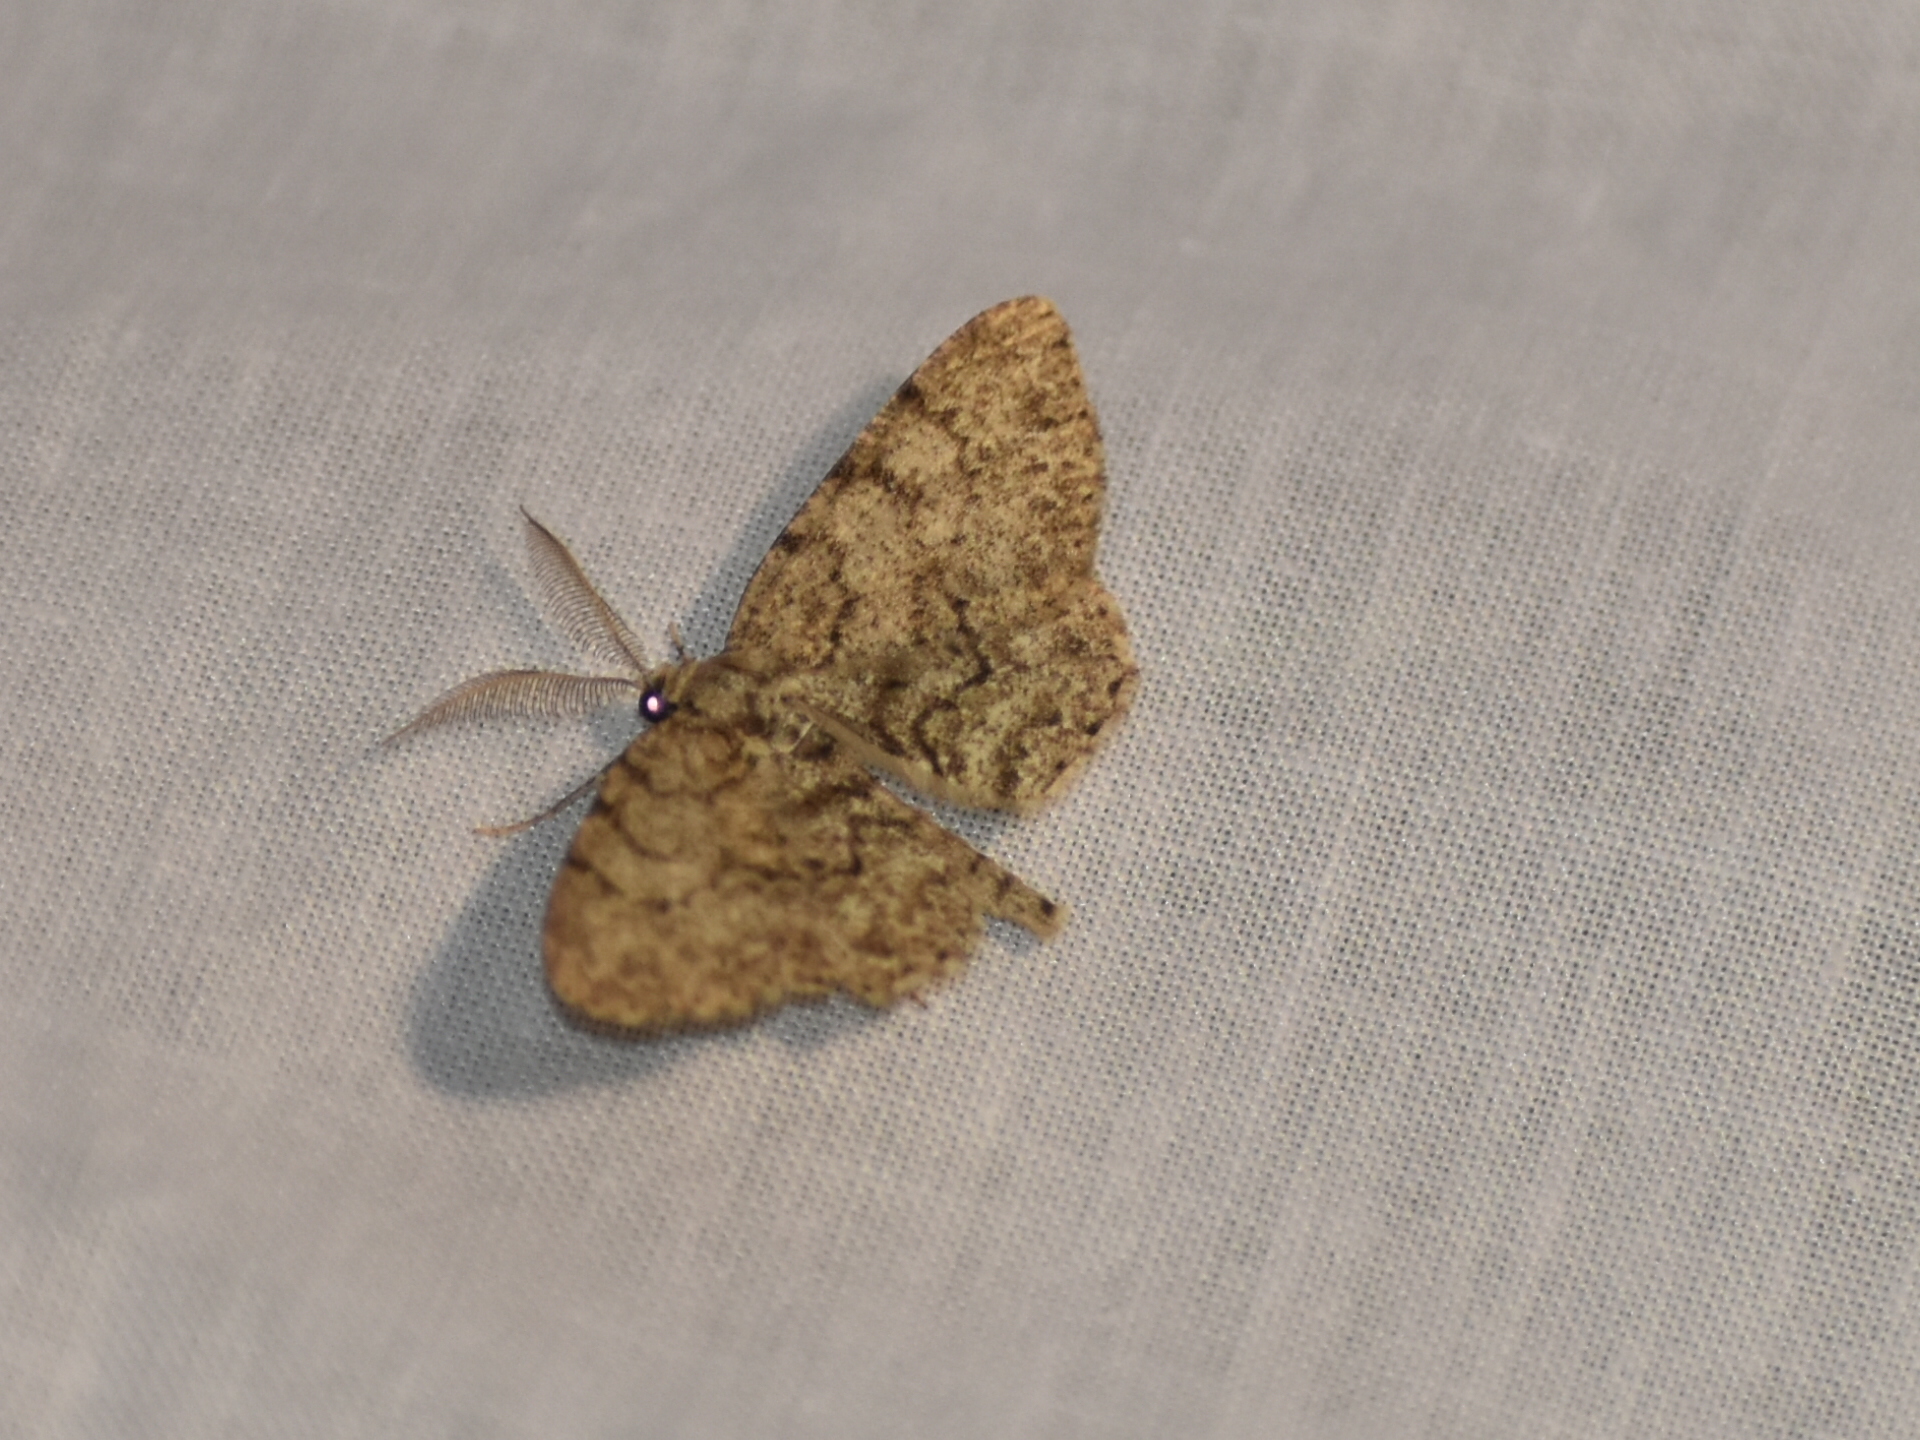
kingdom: Animalia
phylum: Arthropoda
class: Insecta
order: Lepidoptera
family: Geometridae
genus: Protoboarmia
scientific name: Protoboarmia porcelaria
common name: Porcelain gray
